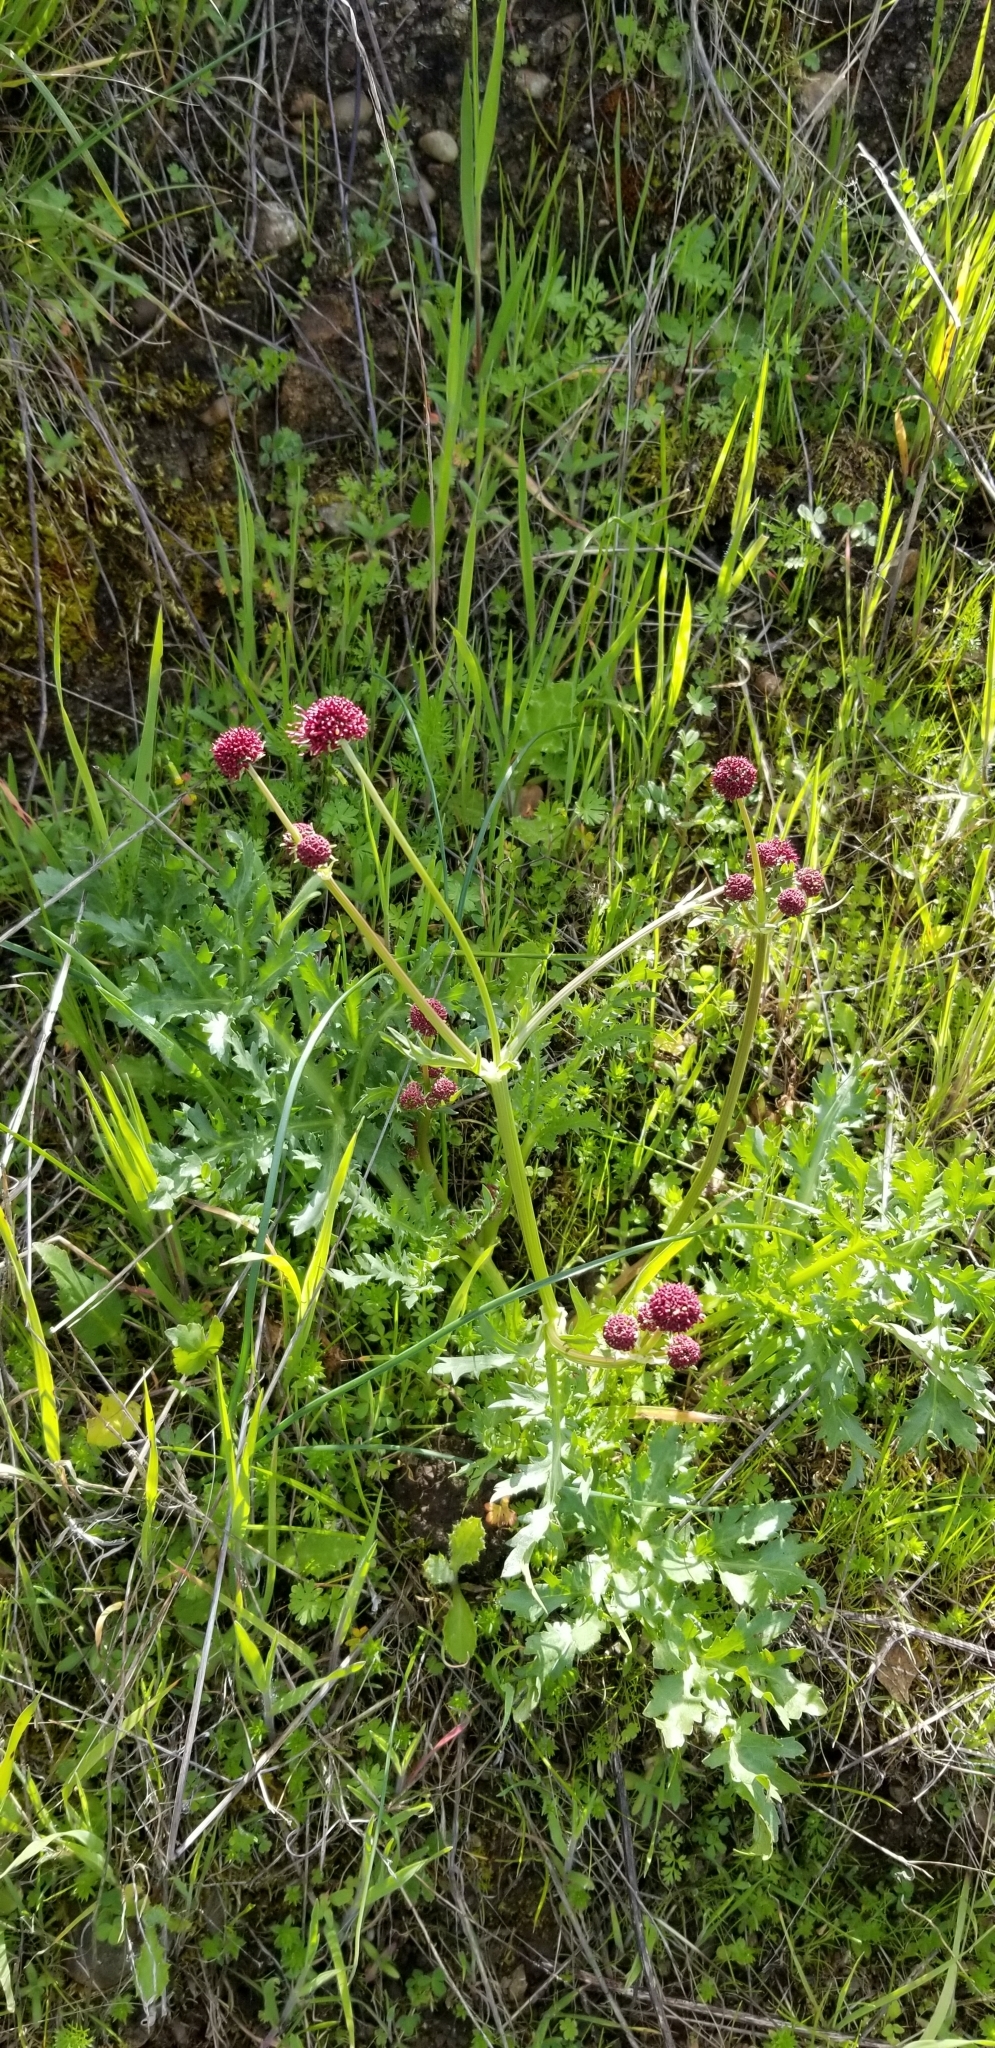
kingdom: Plantae
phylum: Tracheophyta
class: Magnoliopsida
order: Apiales
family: Apiaceae
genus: Sanicula
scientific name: Sanicula bipinnatifida
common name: Shoe-buttons
